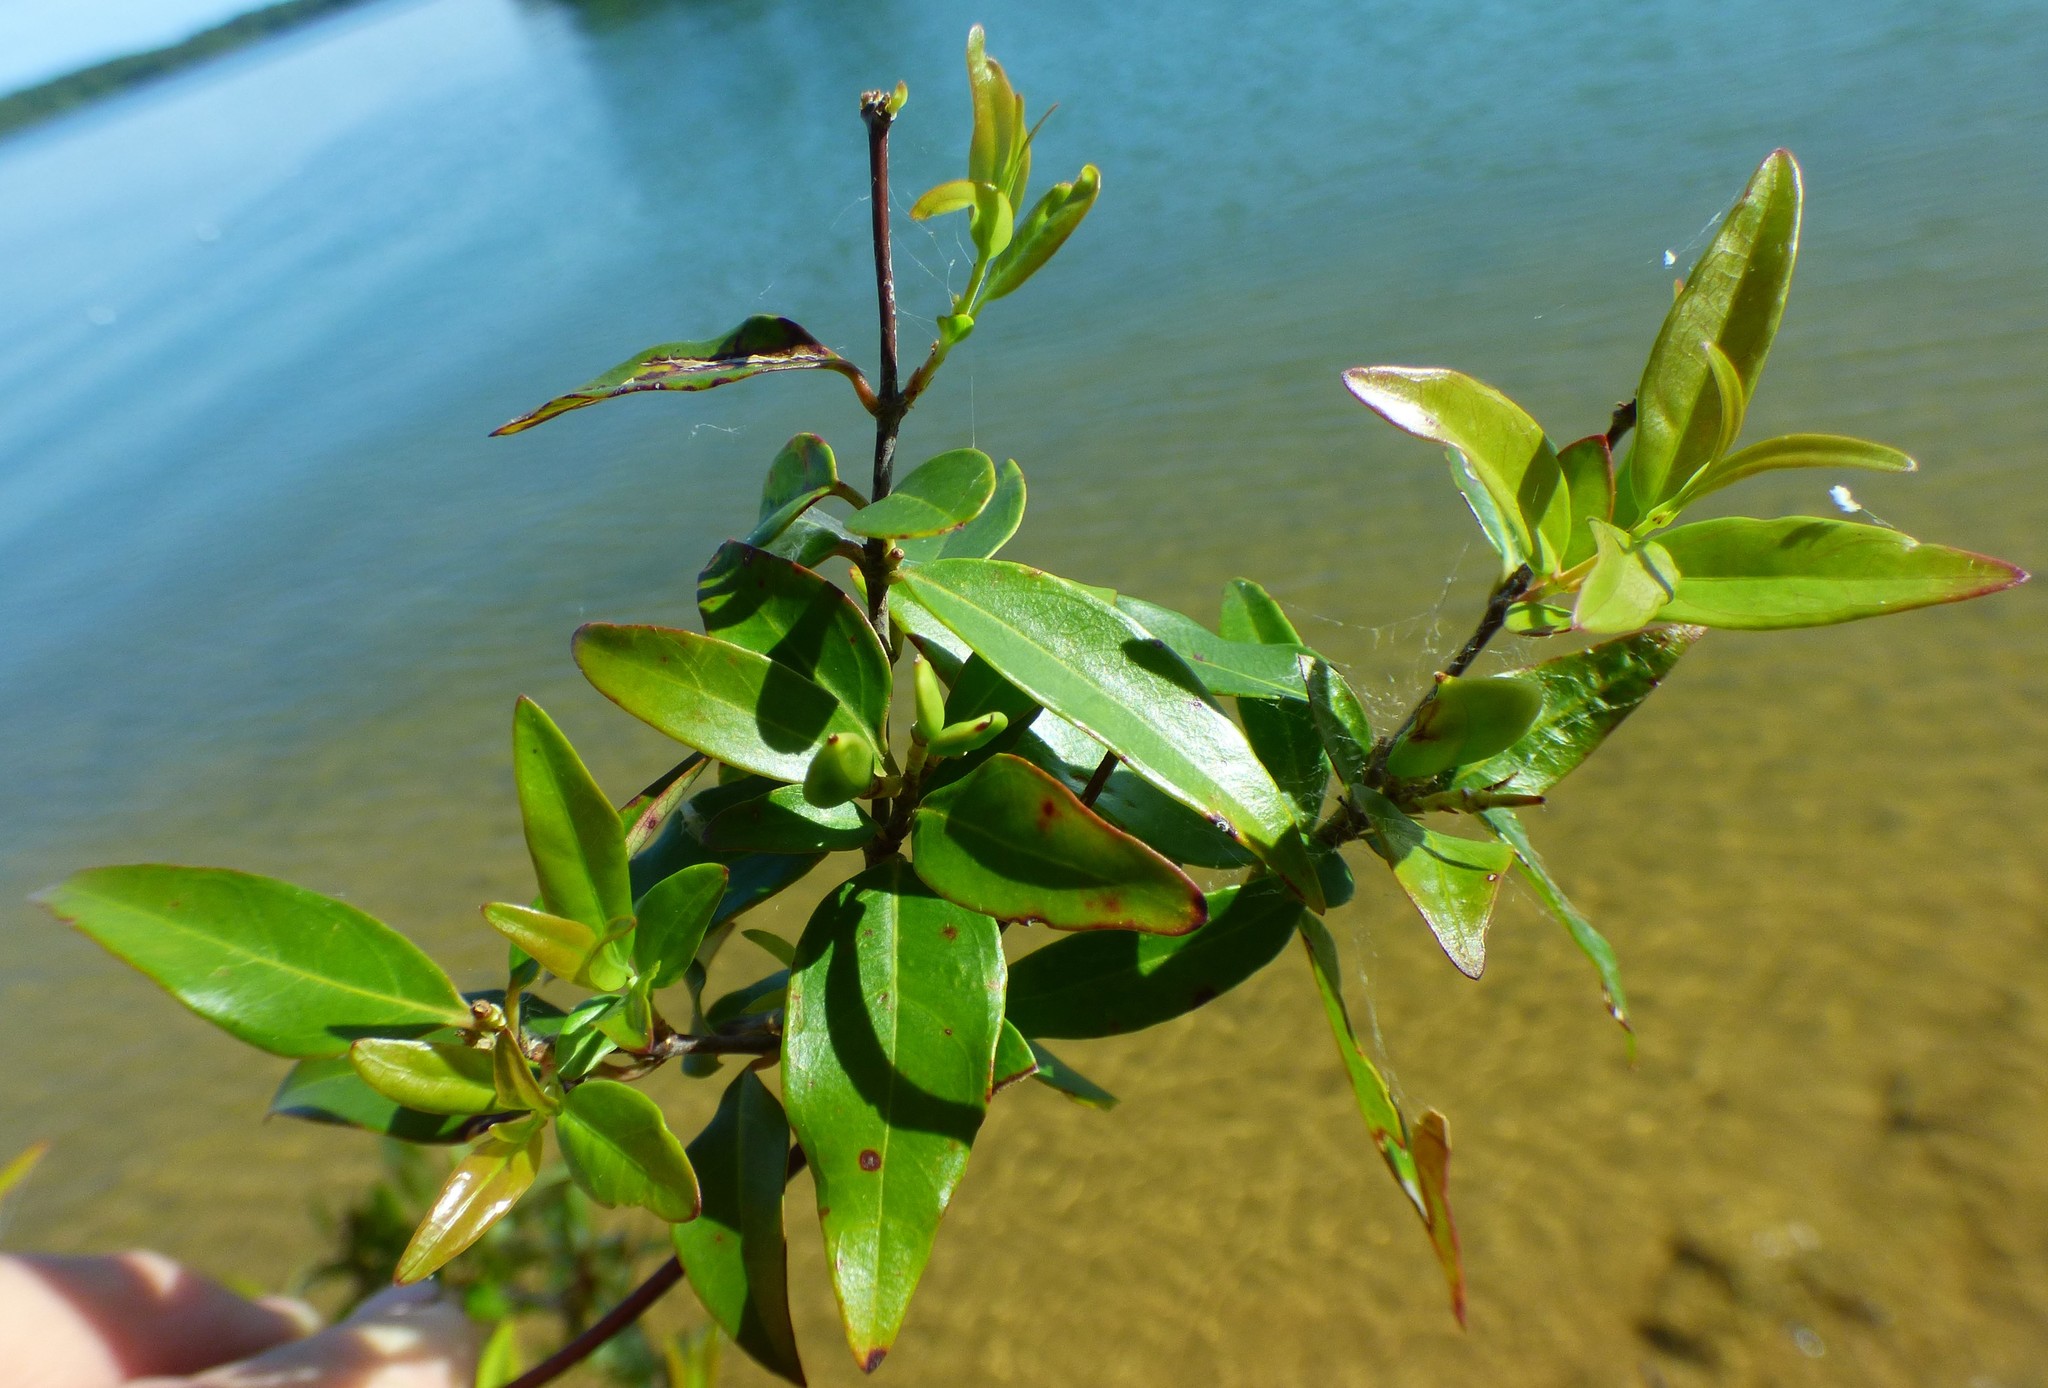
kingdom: Plantae
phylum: Tracheophyta
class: Magnoliopsida
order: Gentianales
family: Gelsemiaceae
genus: Gelsemium
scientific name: Gelsemium sempervirens
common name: Carolina-jasmine
